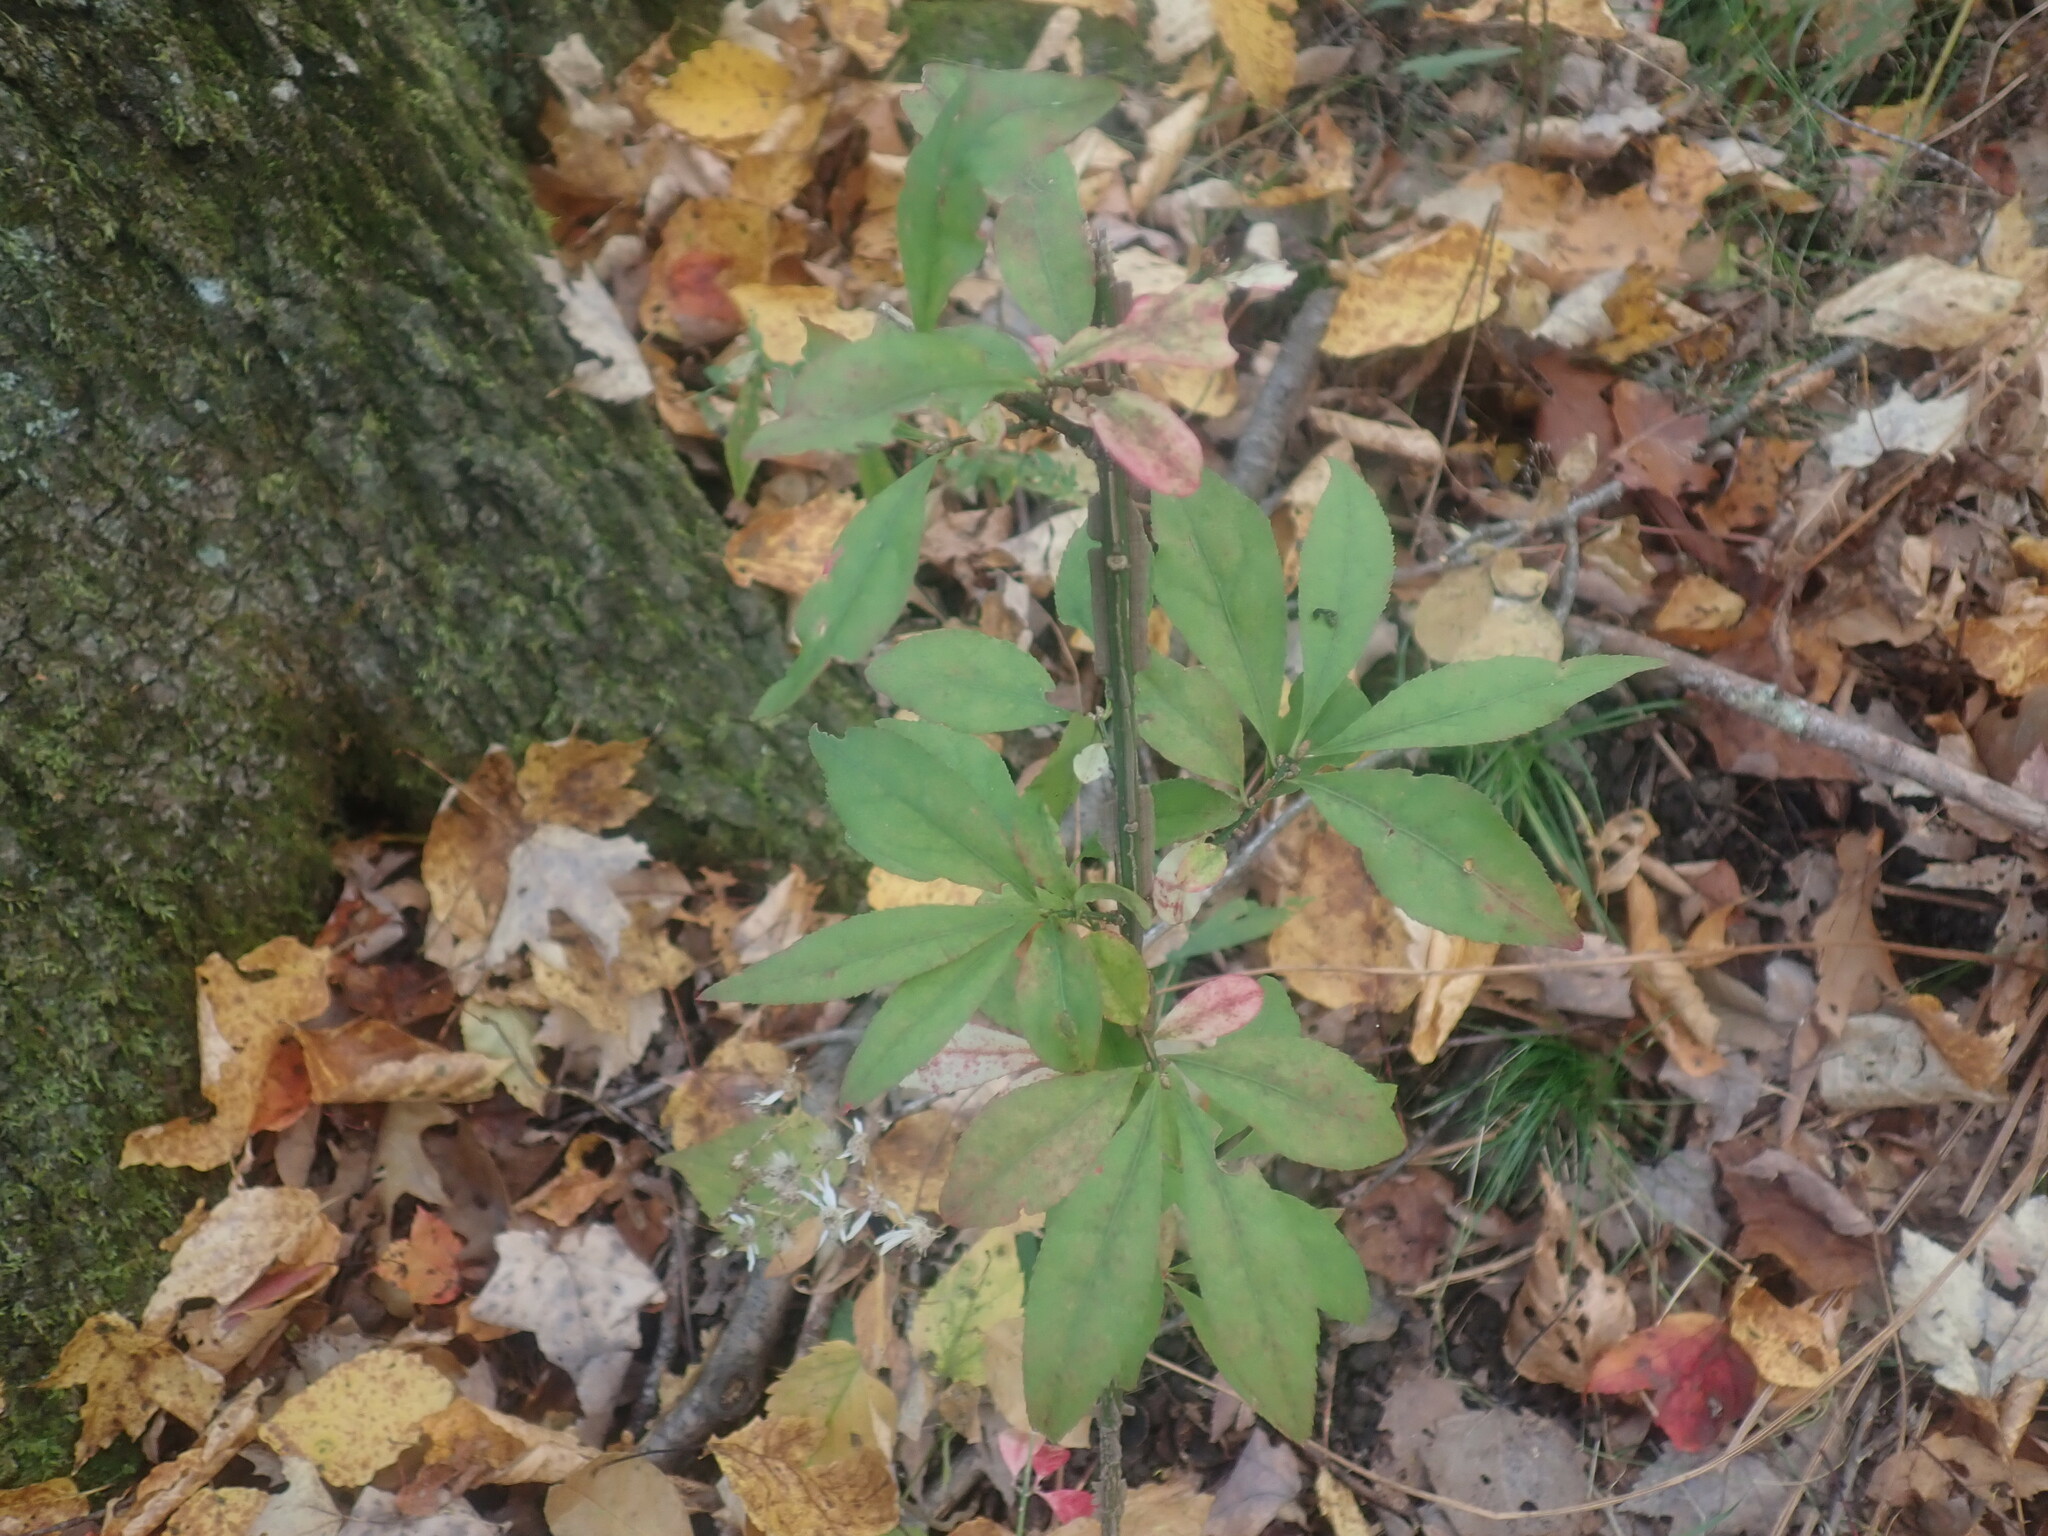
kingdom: Plantae
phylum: Tracheophyta
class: Magnoliopsida
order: Celastrales
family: Celastraceae
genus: Euonymus
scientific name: Euonymus alatus
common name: Winged euonymus
